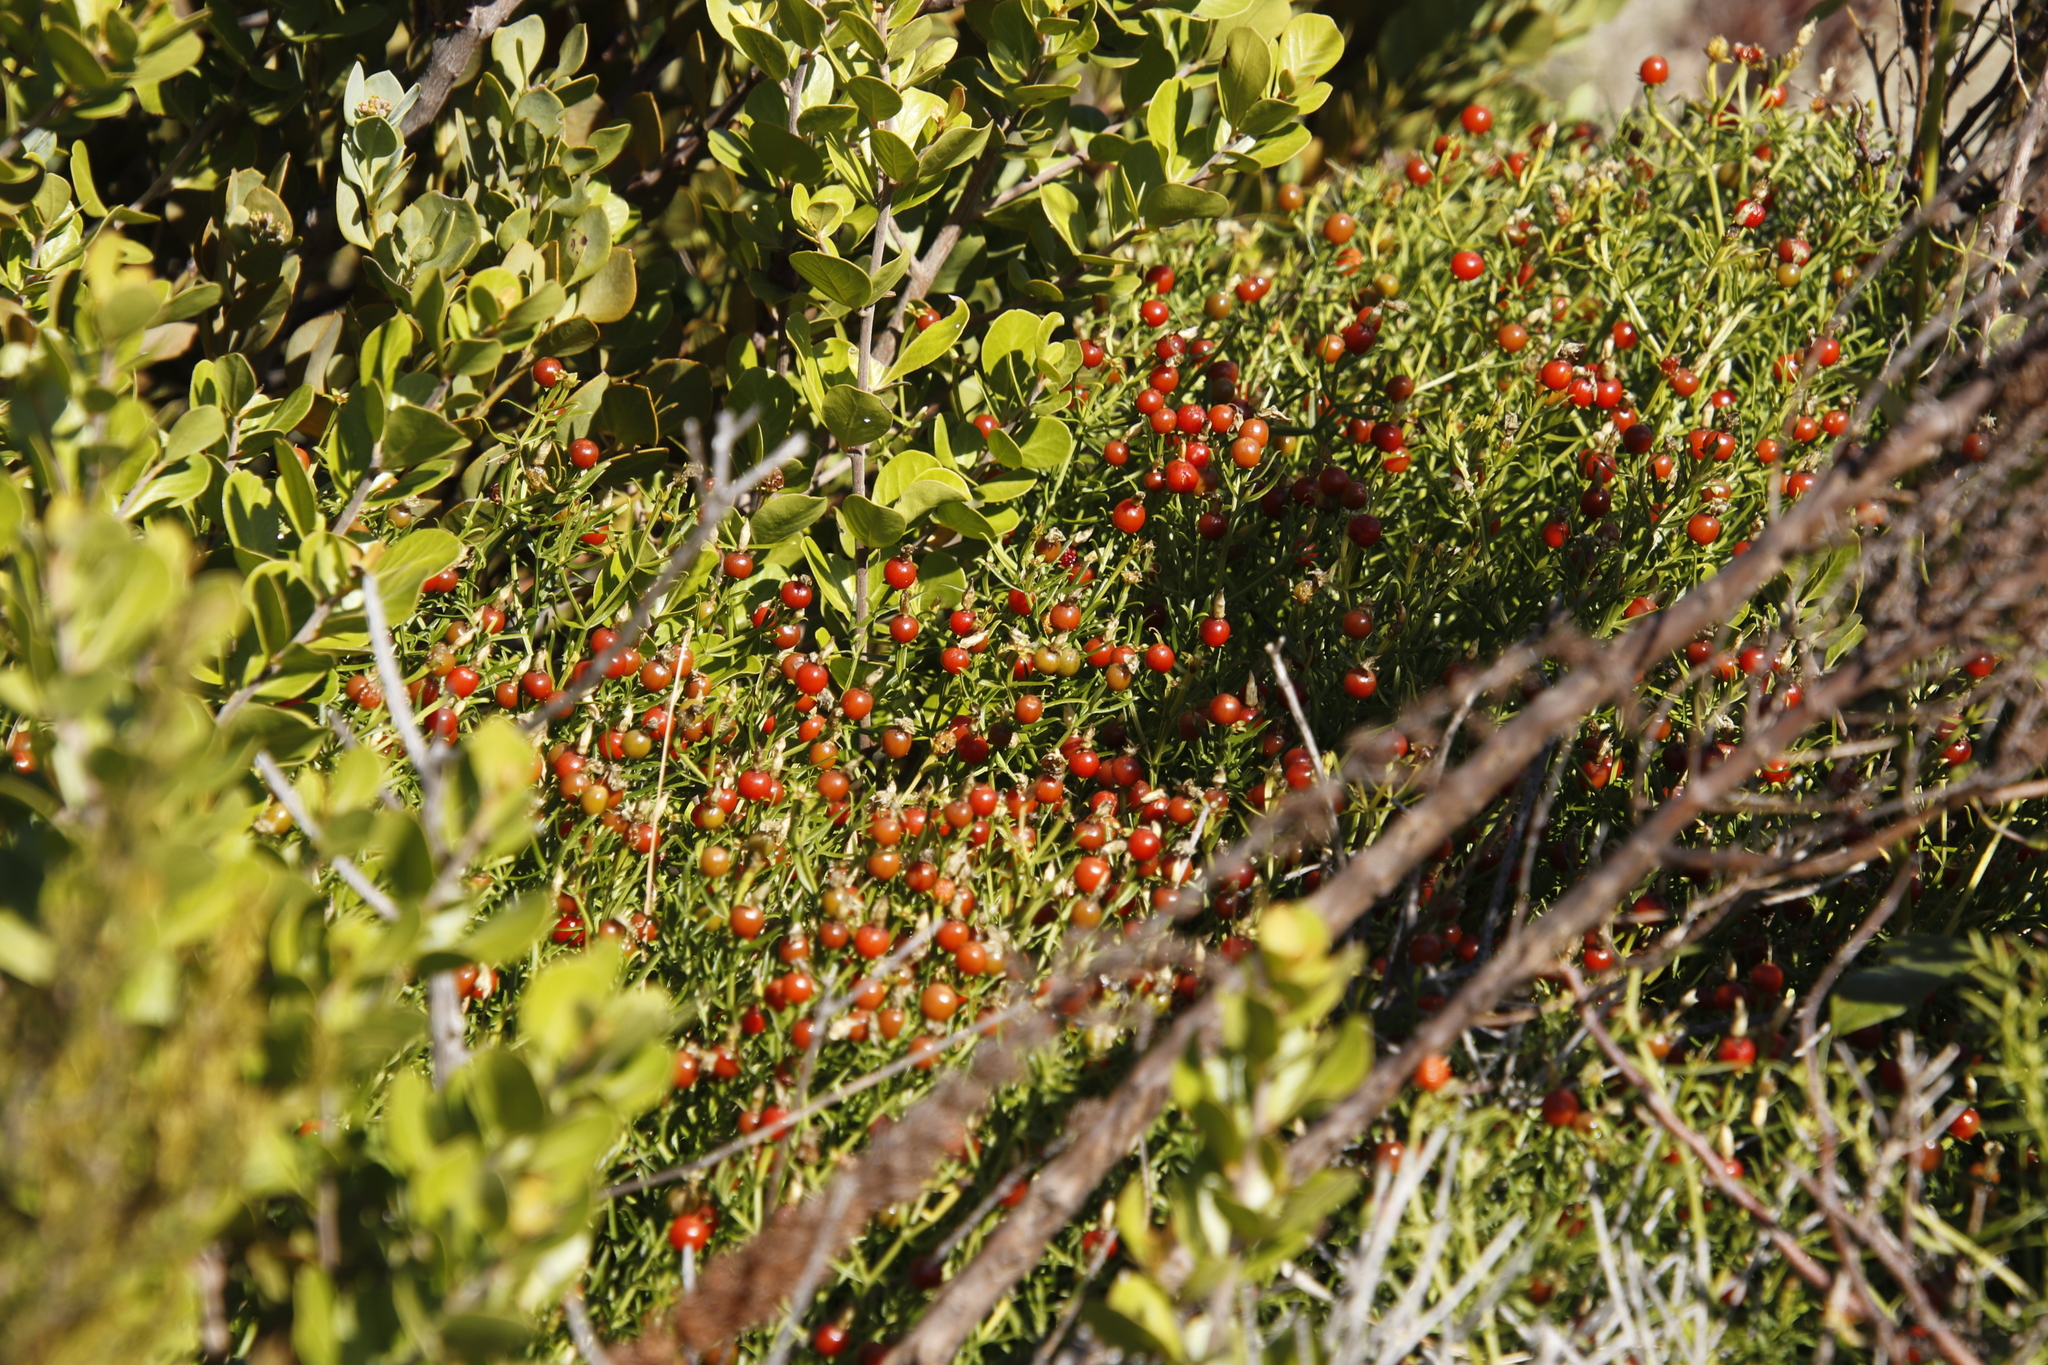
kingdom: Plantae
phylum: Tracheophyta
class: Magnoliopsida
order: Gentianales
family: Gentianaceae
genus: Chironia
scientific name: Chironia baccifera
